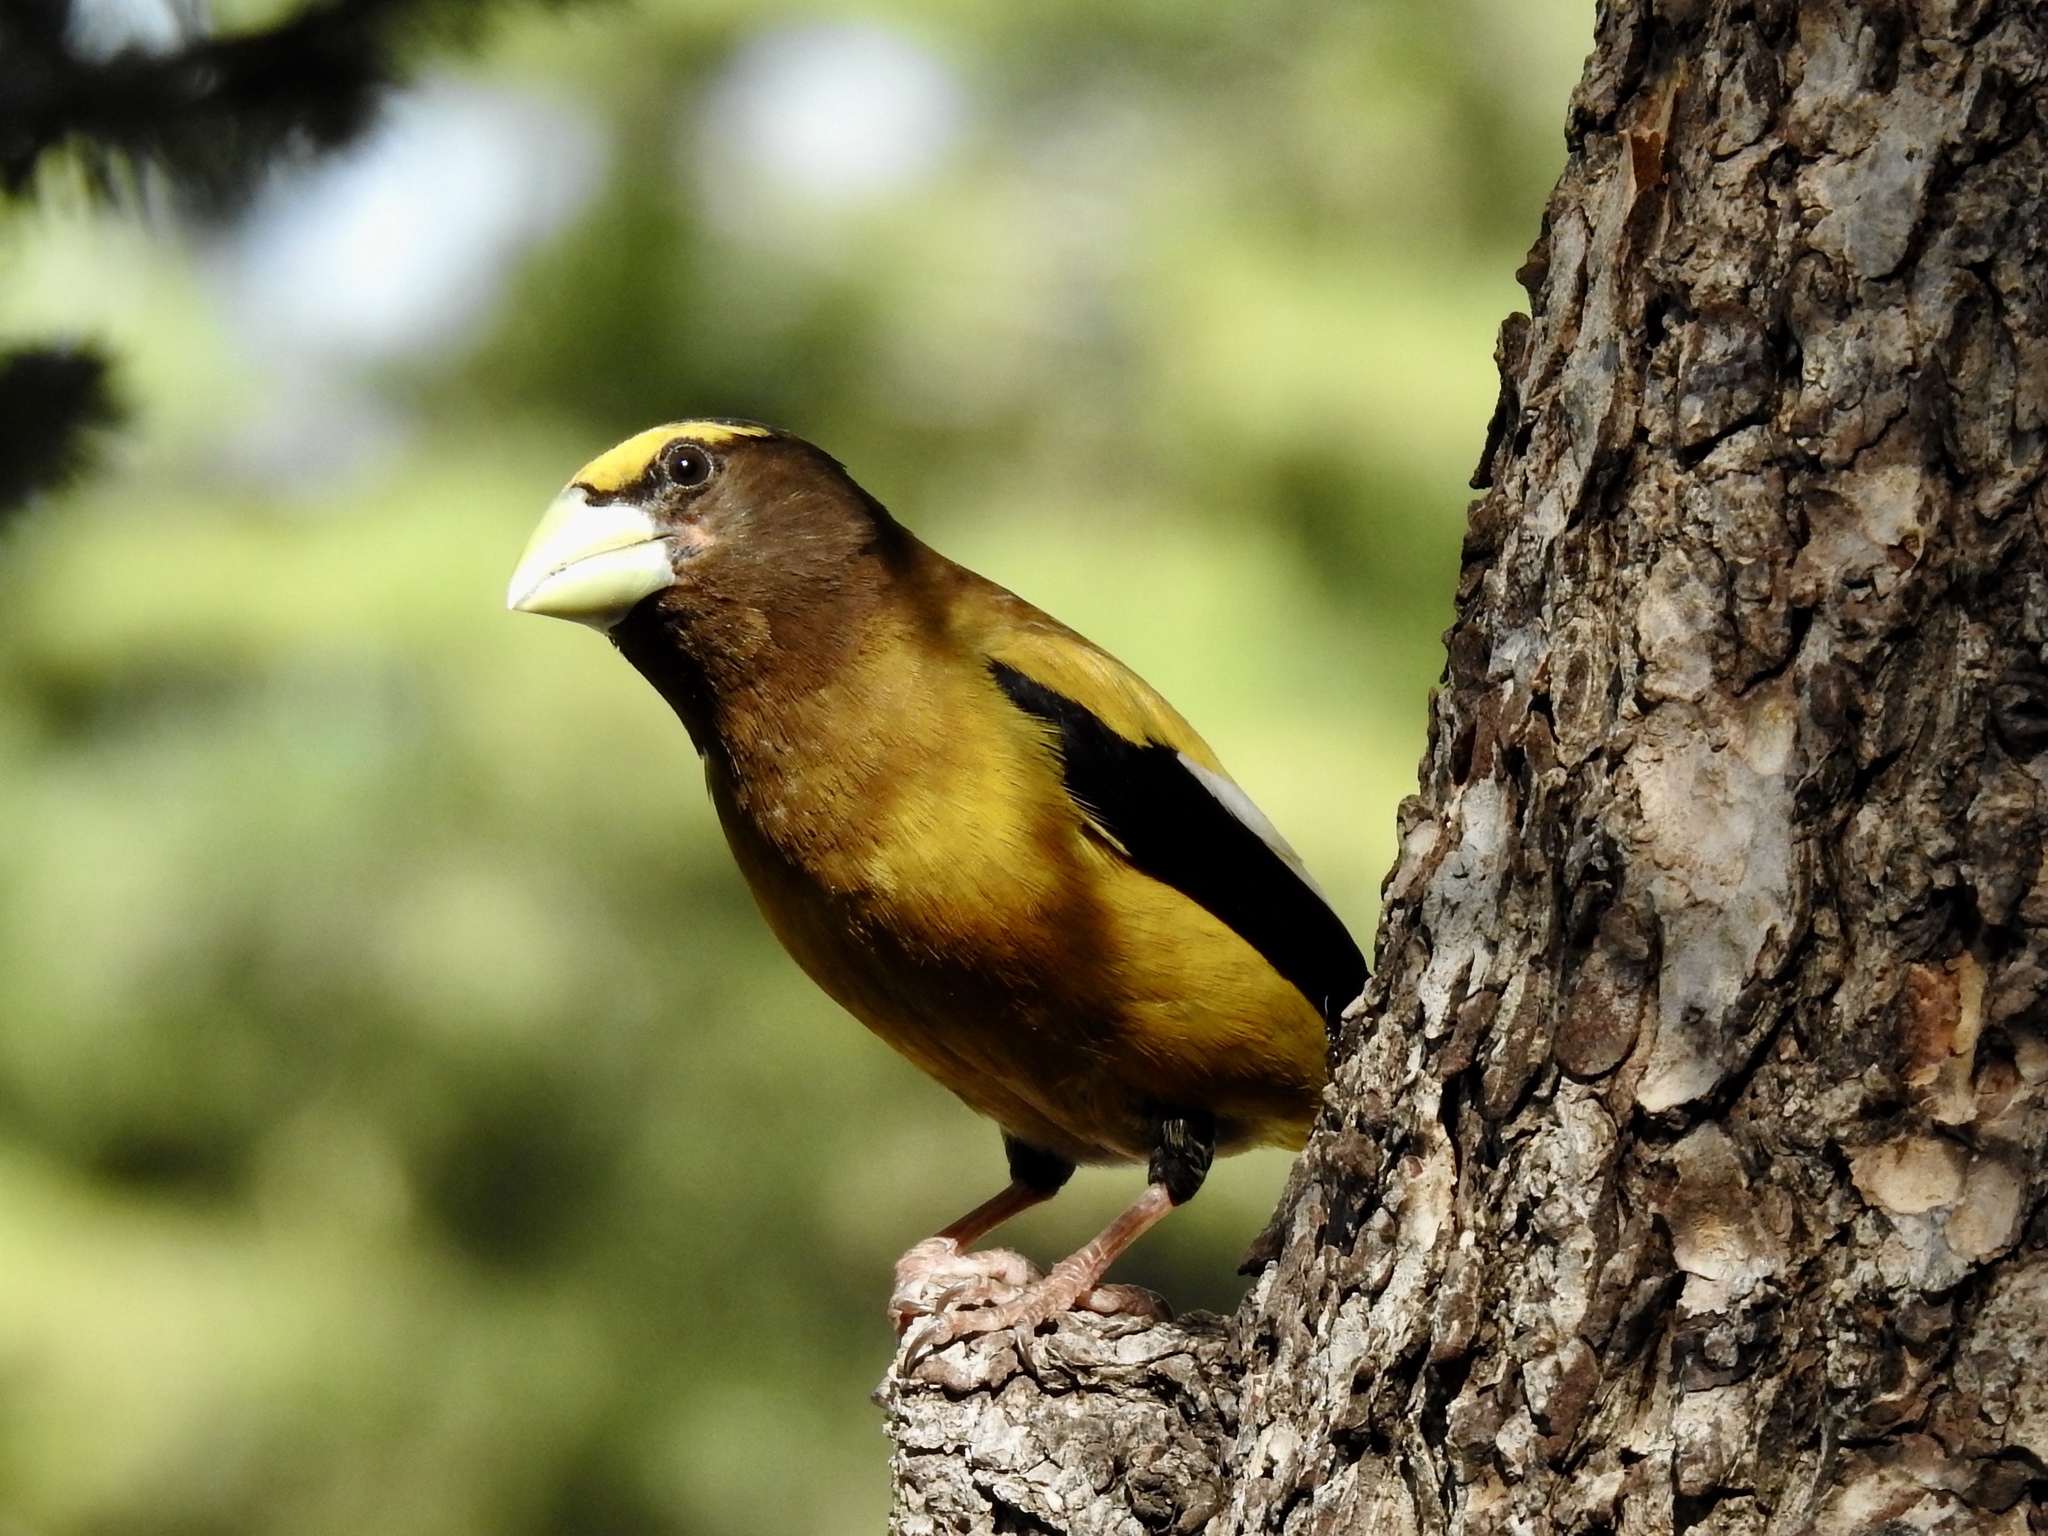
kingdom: Animalia
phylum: Chordata
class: Aves
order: Passeriformes
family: Fringillidae
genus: Hesperiphona
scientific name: Hesperiphona vespertina
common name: Evening grosbeak
